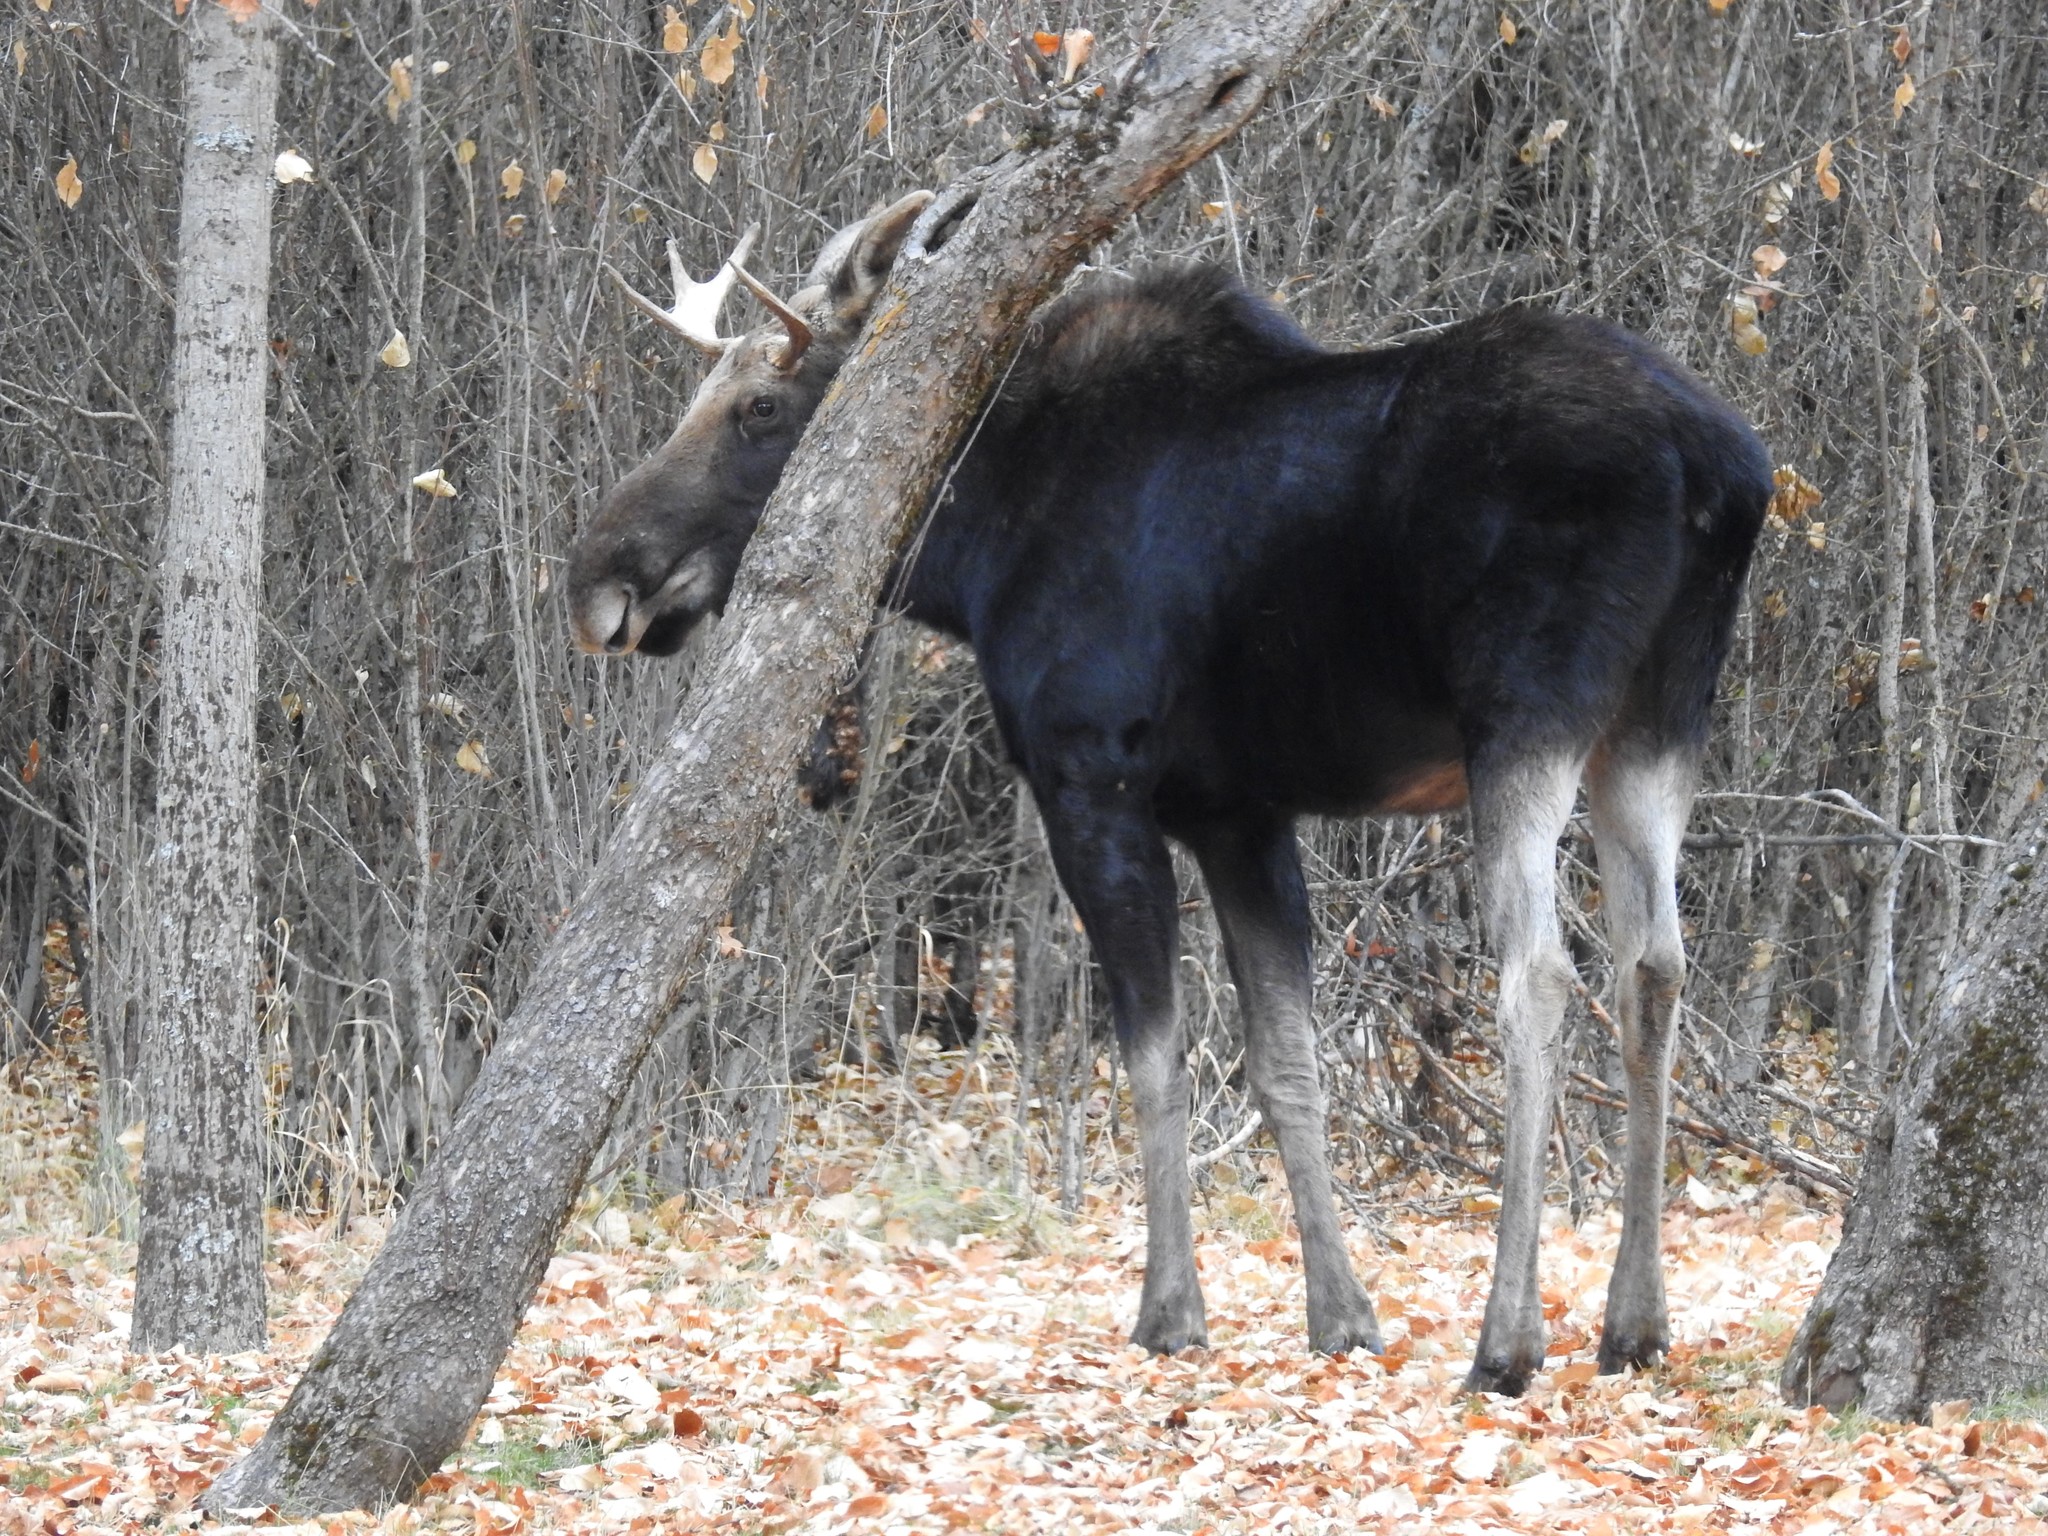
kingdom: Animalia
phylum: Chordata
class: Mammalia
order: Artiodactyla
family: Cervidae
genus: Alces
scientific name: Alces alces
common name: Moose
